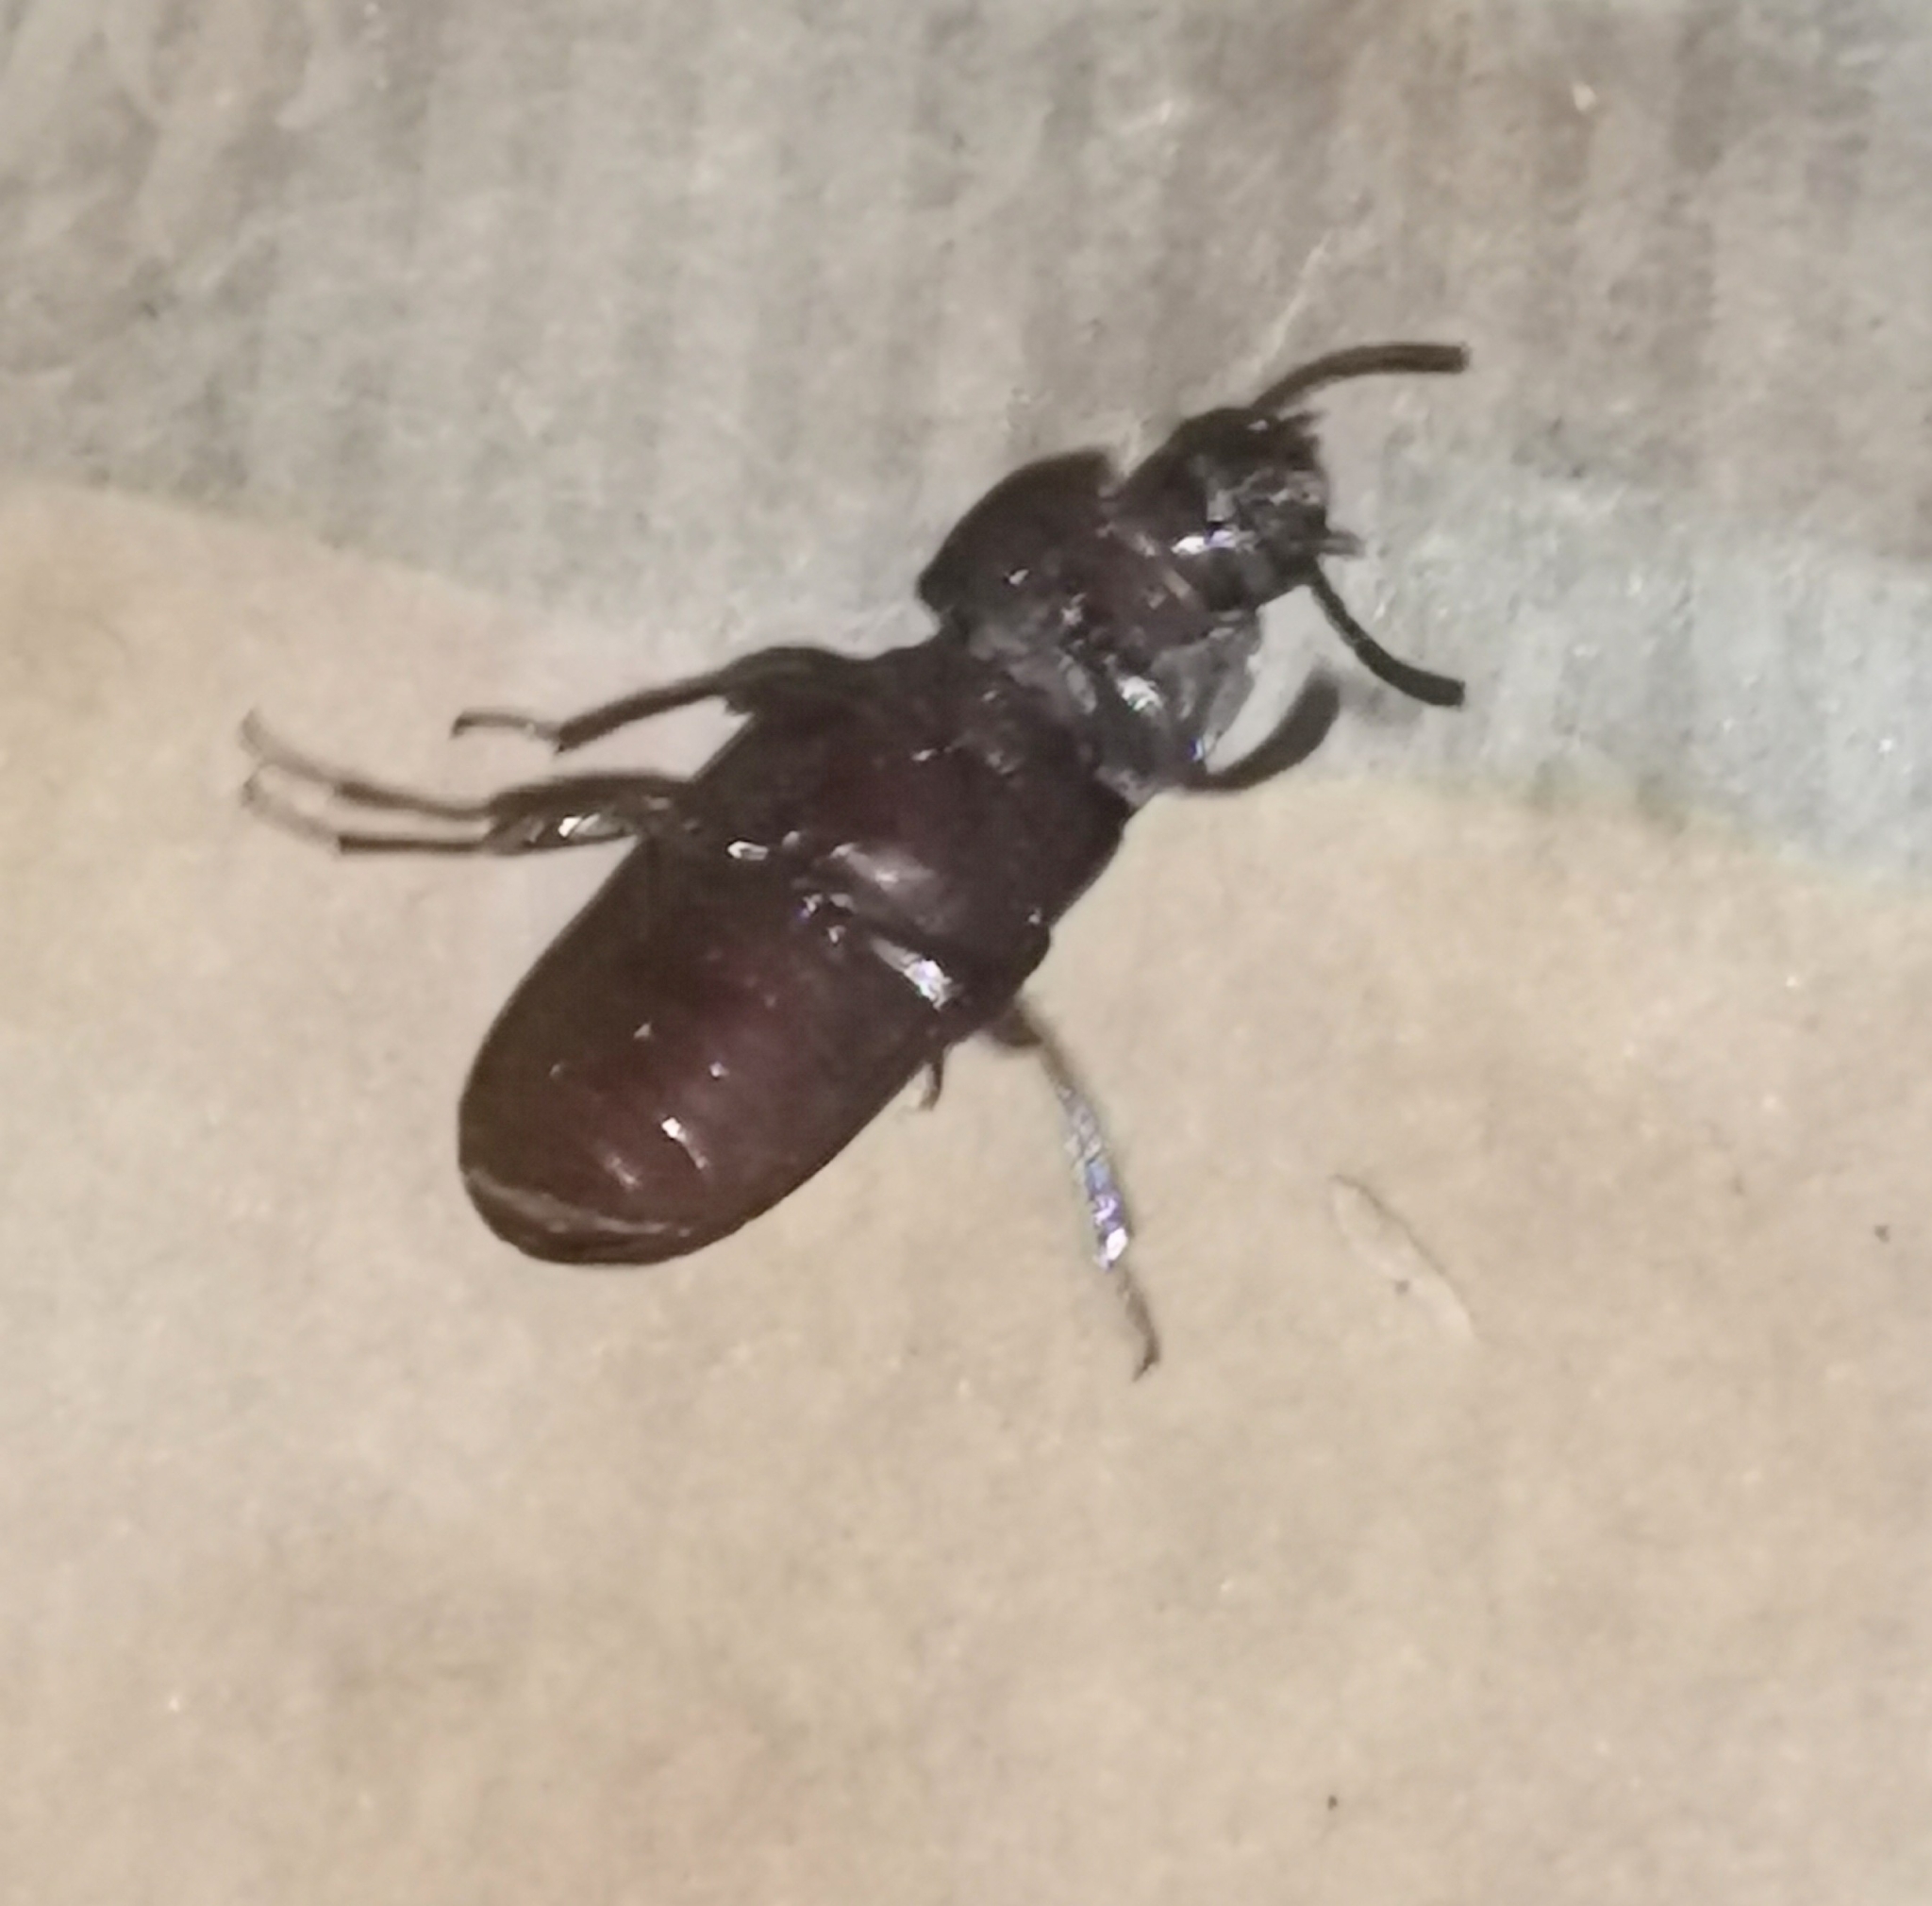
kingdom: Animalia
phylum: Arthropoda
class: Insecta
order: Coleoptera
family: Tenebrionidae
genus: Tenebrio
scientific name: Tenebrio molitor
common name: Hardback beetle
